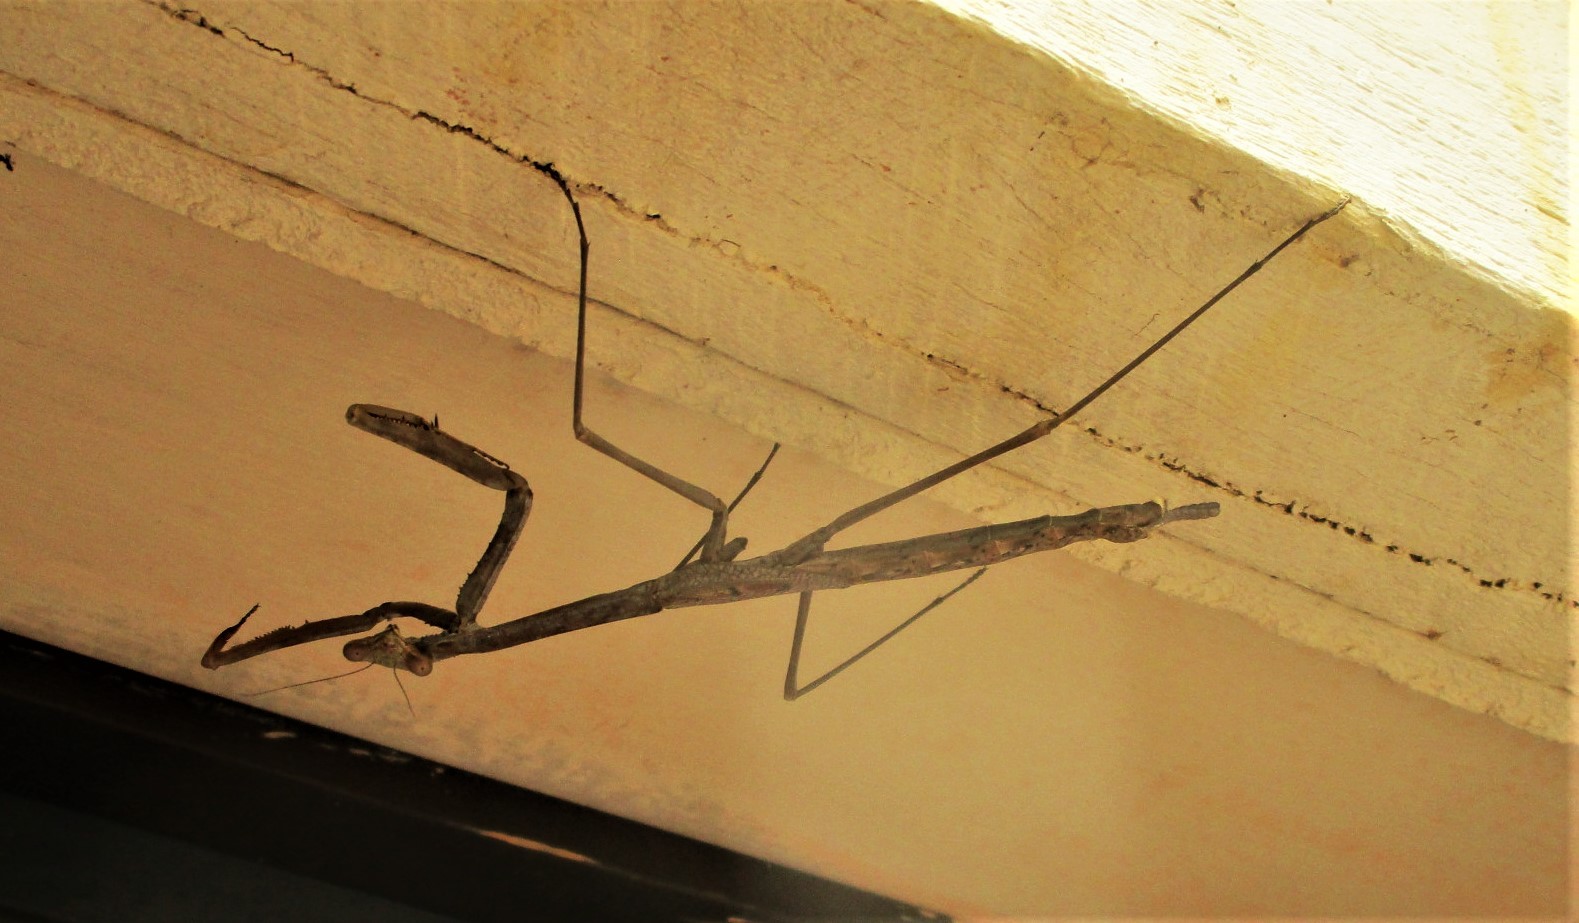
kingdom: Animalia
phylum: Arthropoda
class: Insecta
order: Mantodea
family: Mantidae
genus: Archimantis
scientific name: Archimantis sobrina
